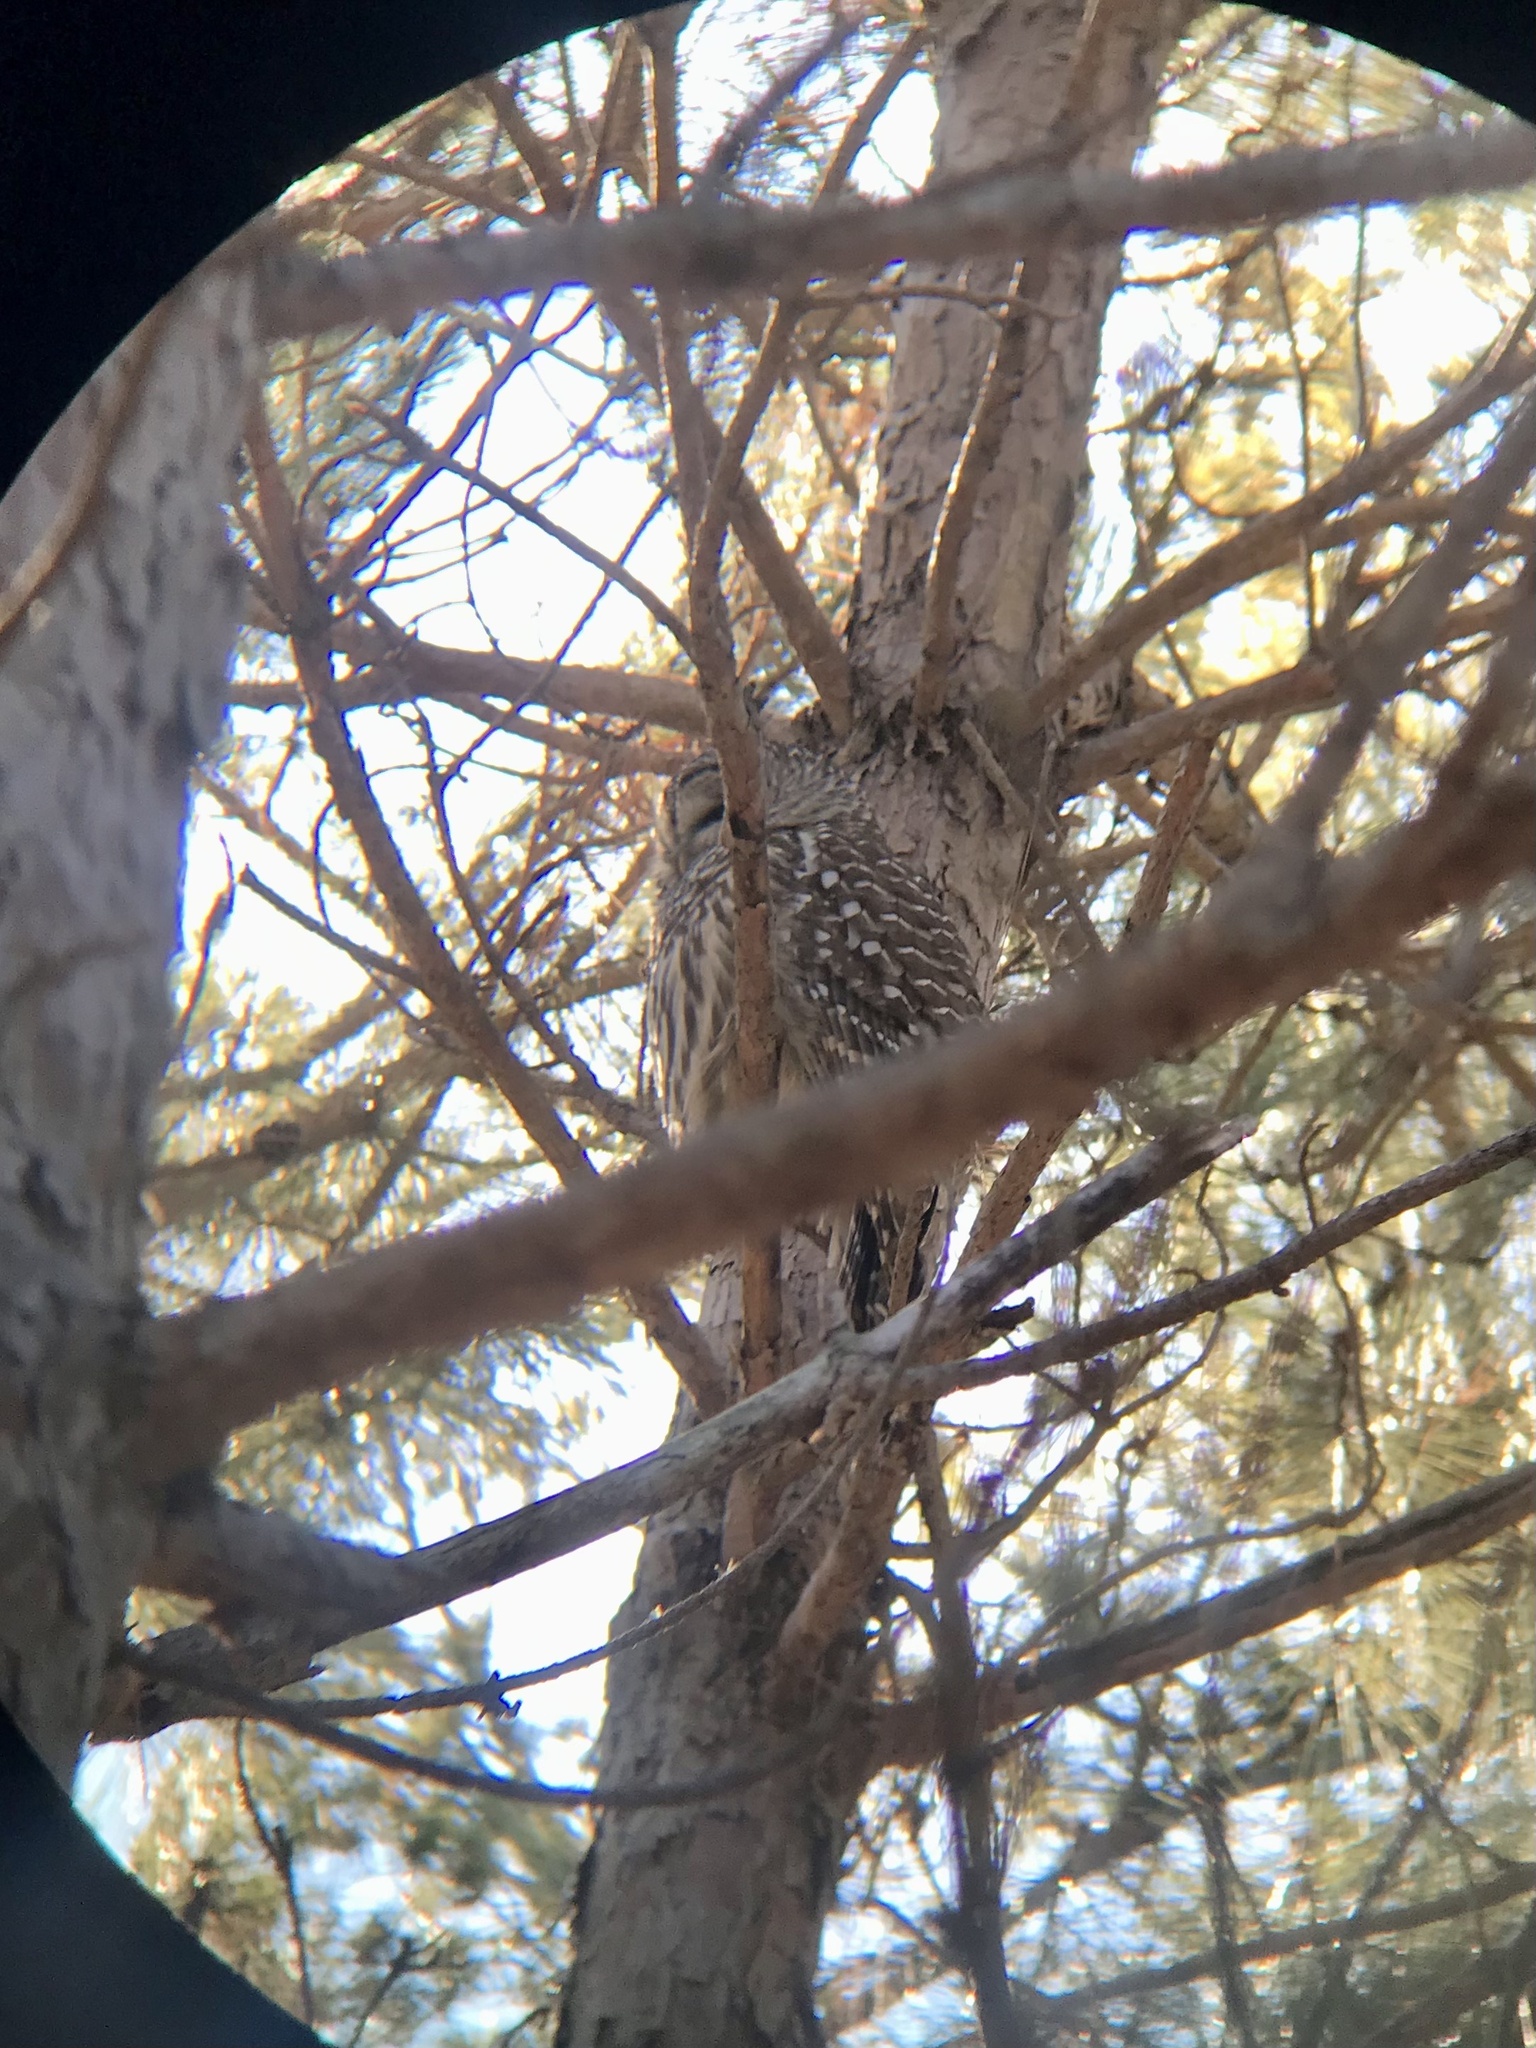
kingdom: Animalia
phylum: Chordata
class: Aves
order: Strigiformes
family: Strigidae
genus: Strix
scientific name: Strix varia
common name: Barred owl
